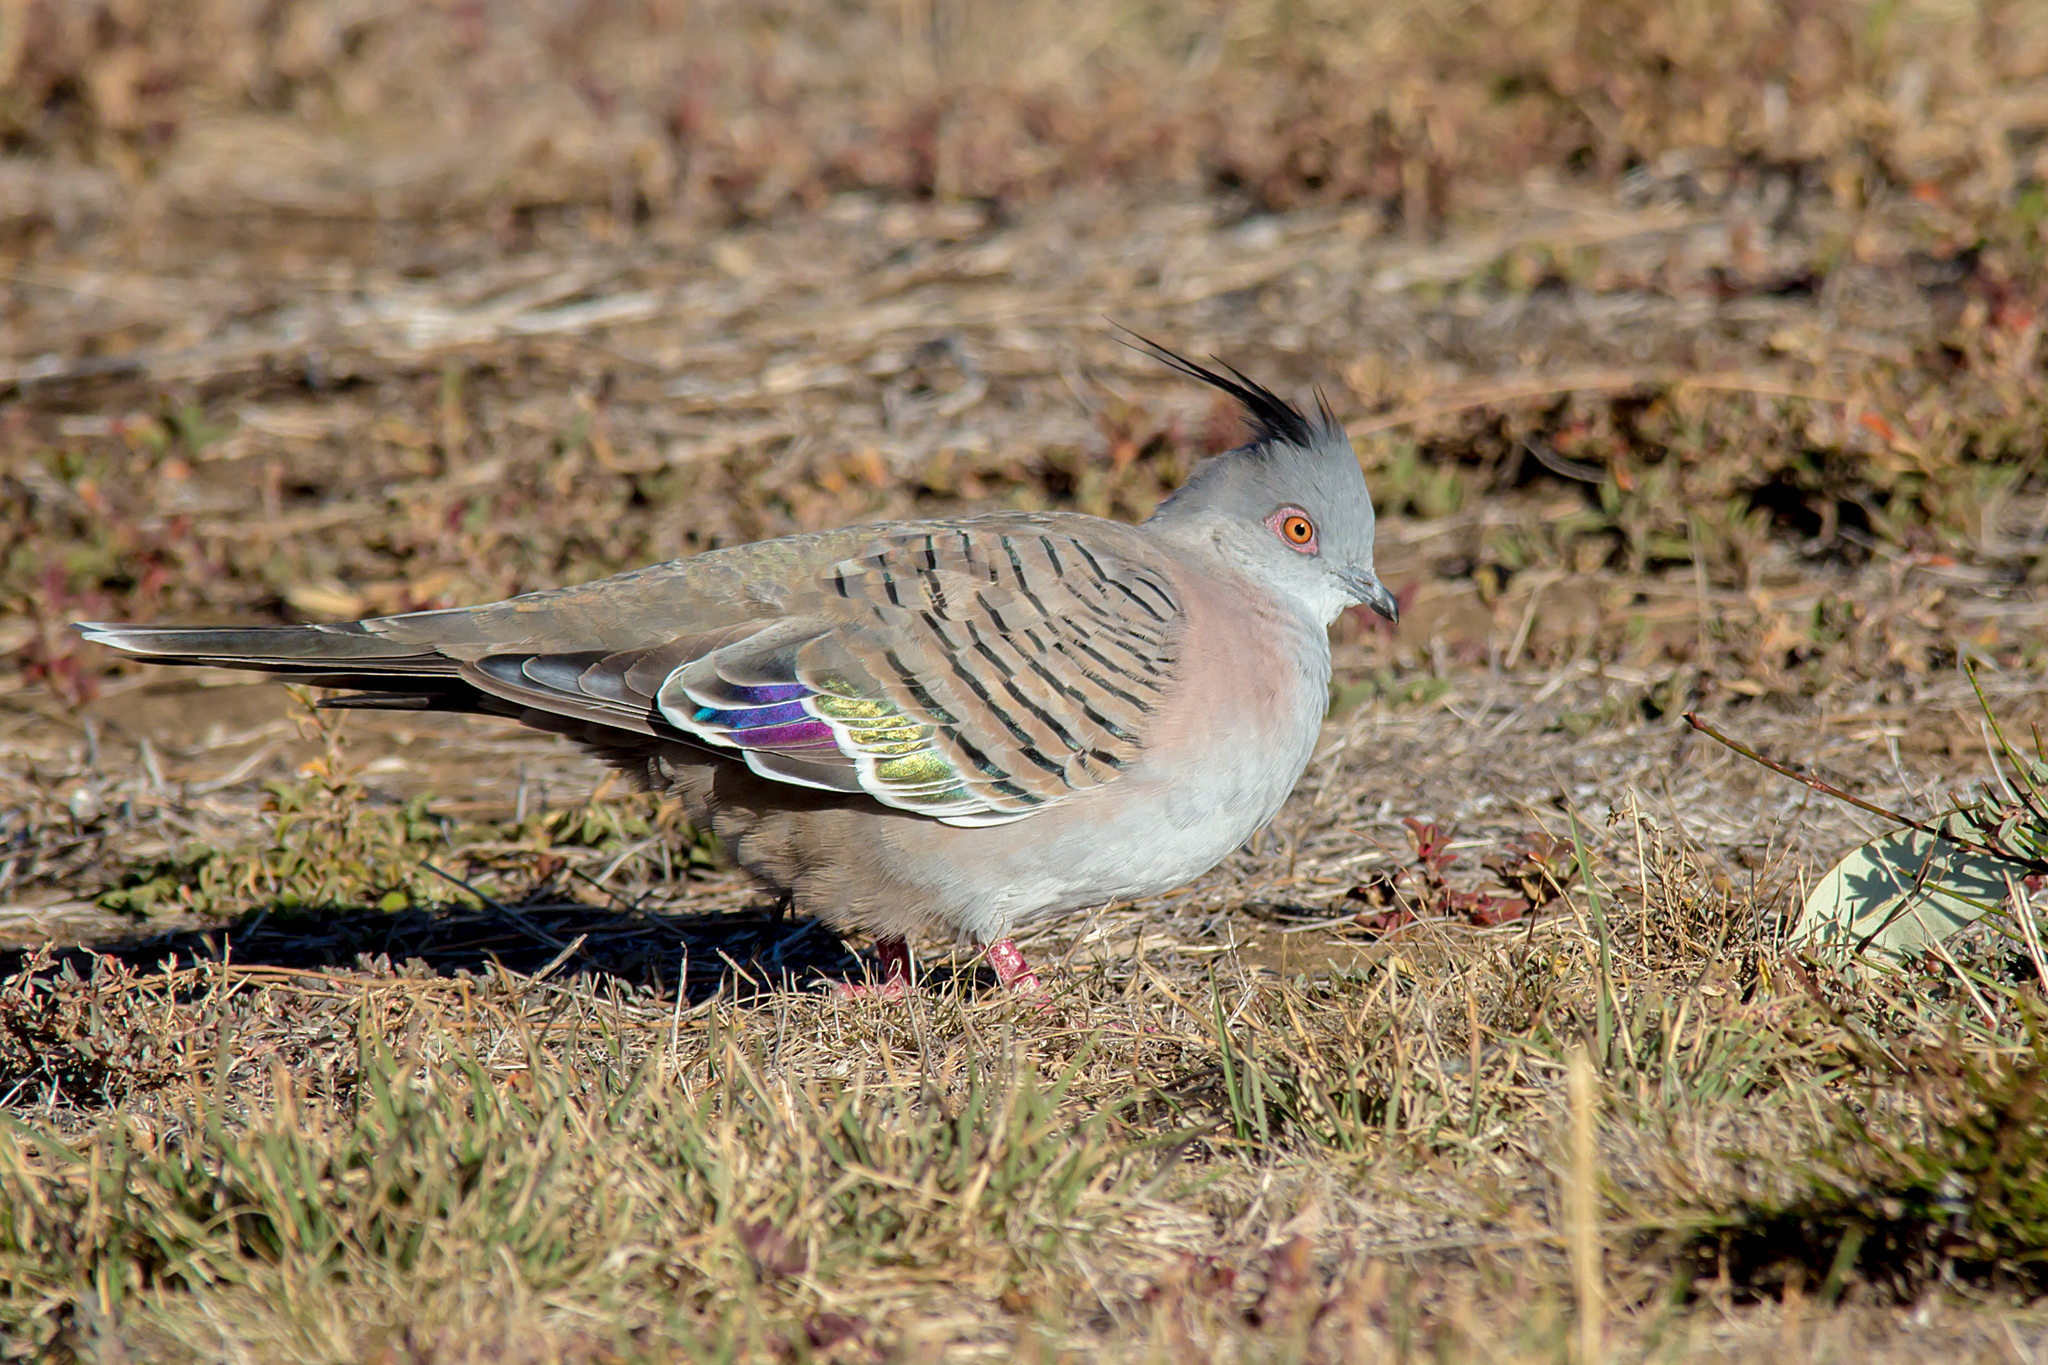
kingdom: Animalia
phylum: Chordata
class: Aves
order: Columbiformes
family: Columbidae
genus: Ocyphaps
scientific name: Ocyphaps lophotes
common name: Crested pigeon
